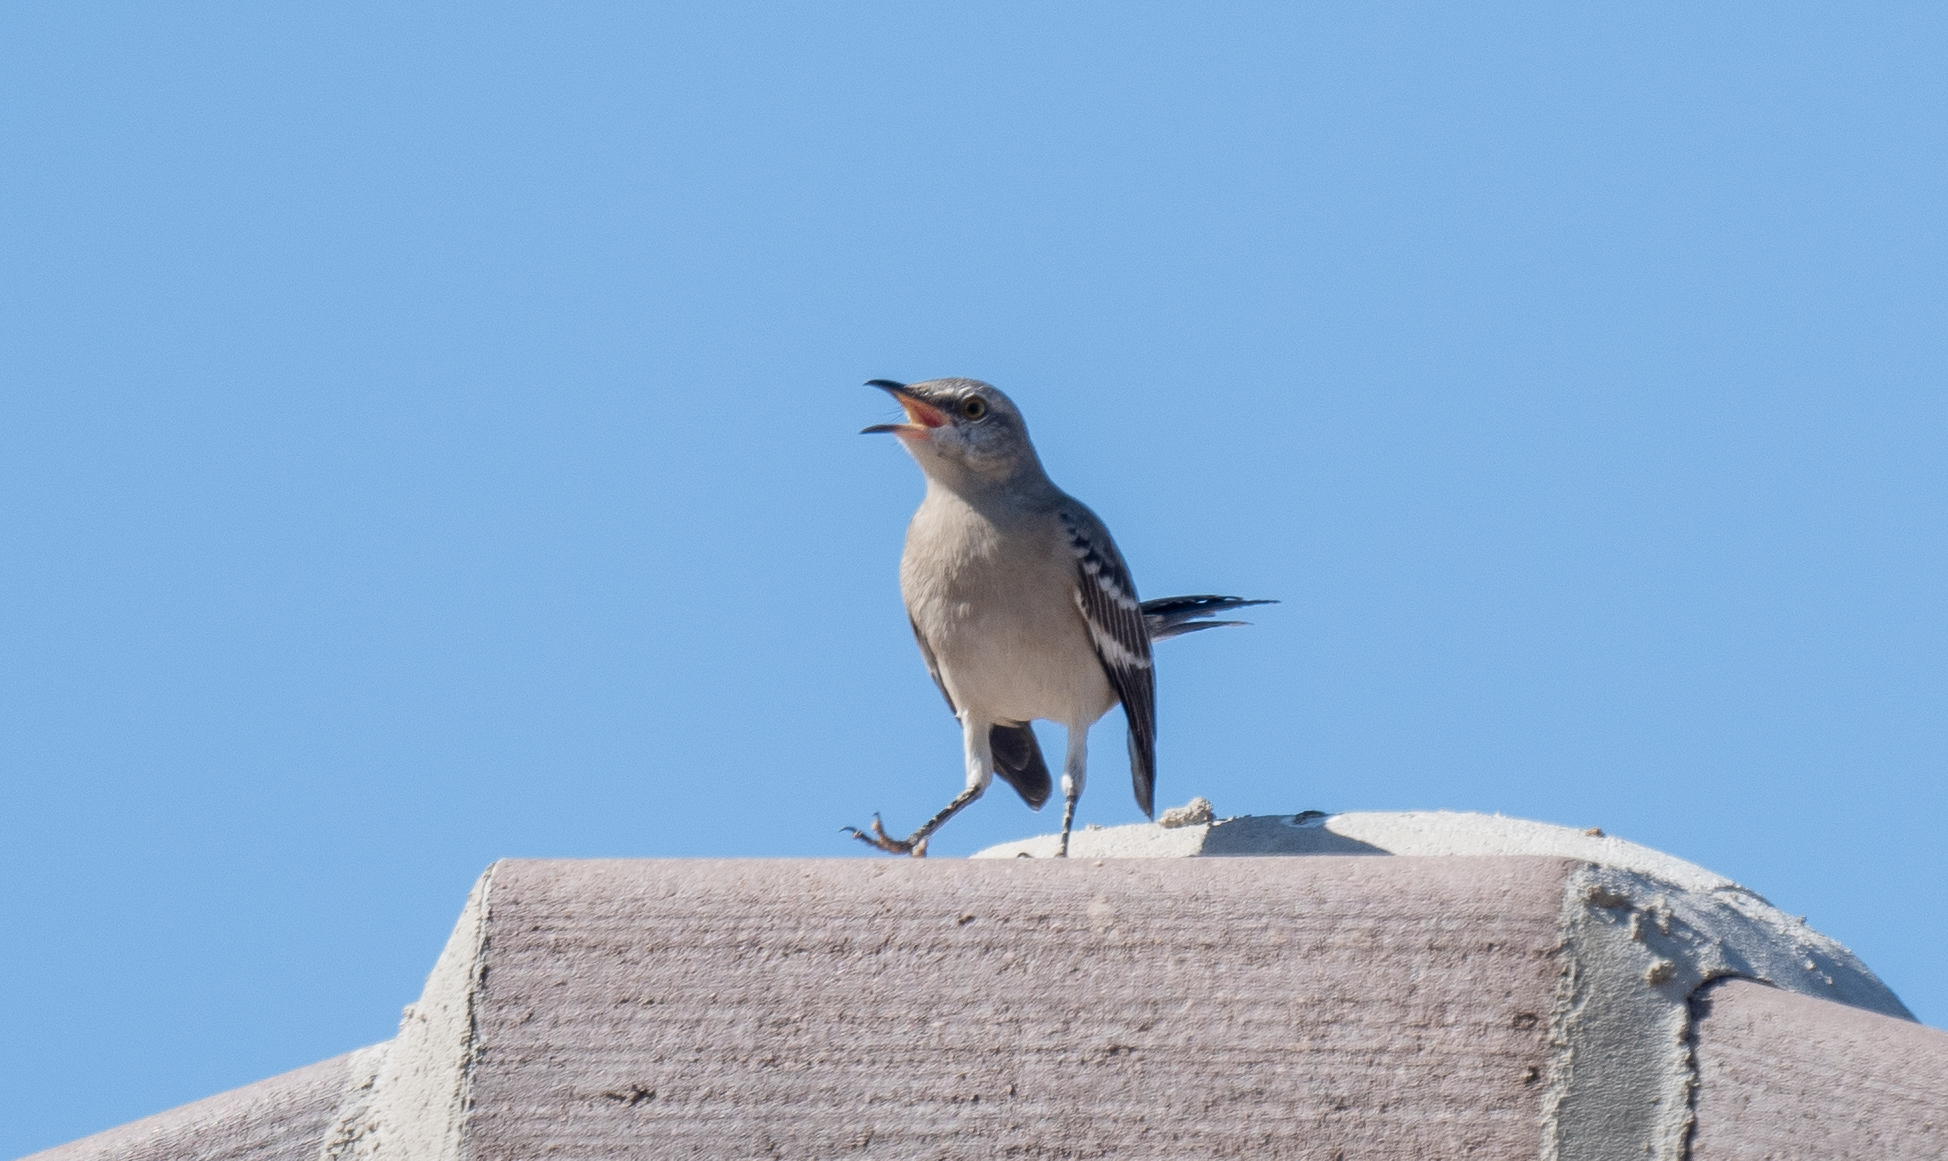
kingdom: Animalia
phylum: Chordata
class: Aves
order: Passeriformes
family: Mimidae
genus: Mimus
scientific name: Mimus polyglottos
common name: Northern mockingbird
